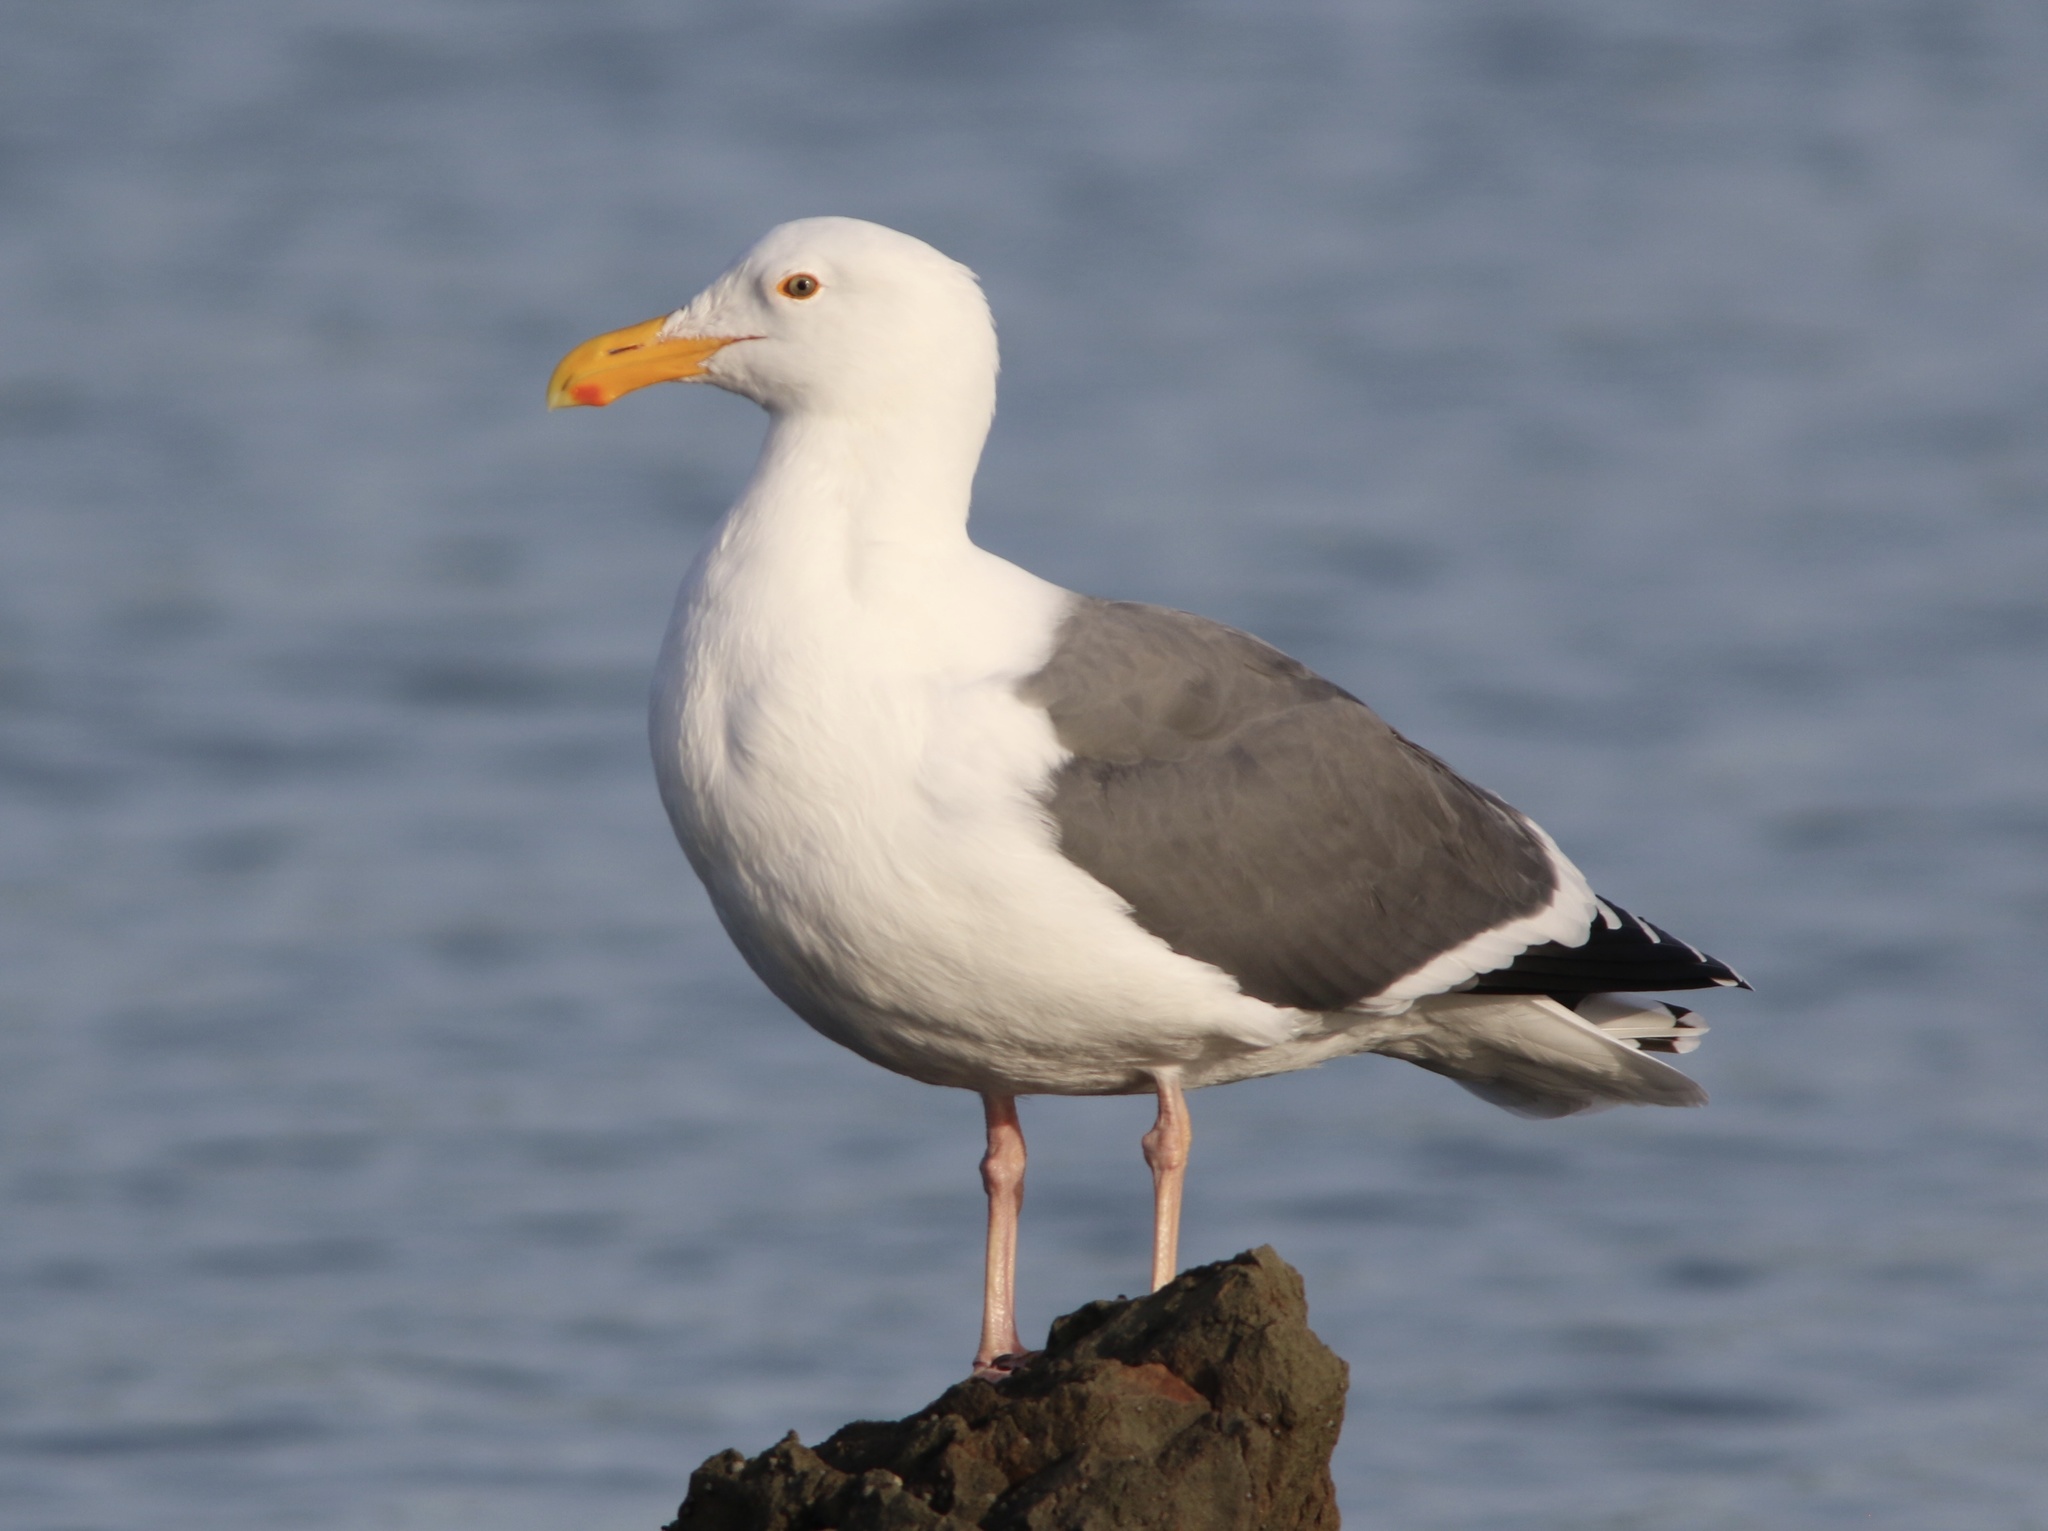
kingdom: Animalia
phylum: Chordata
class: Aves
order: Charadriiformes
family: Laridae
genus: Larus
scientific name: Larus occidentalis
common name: Western gull
